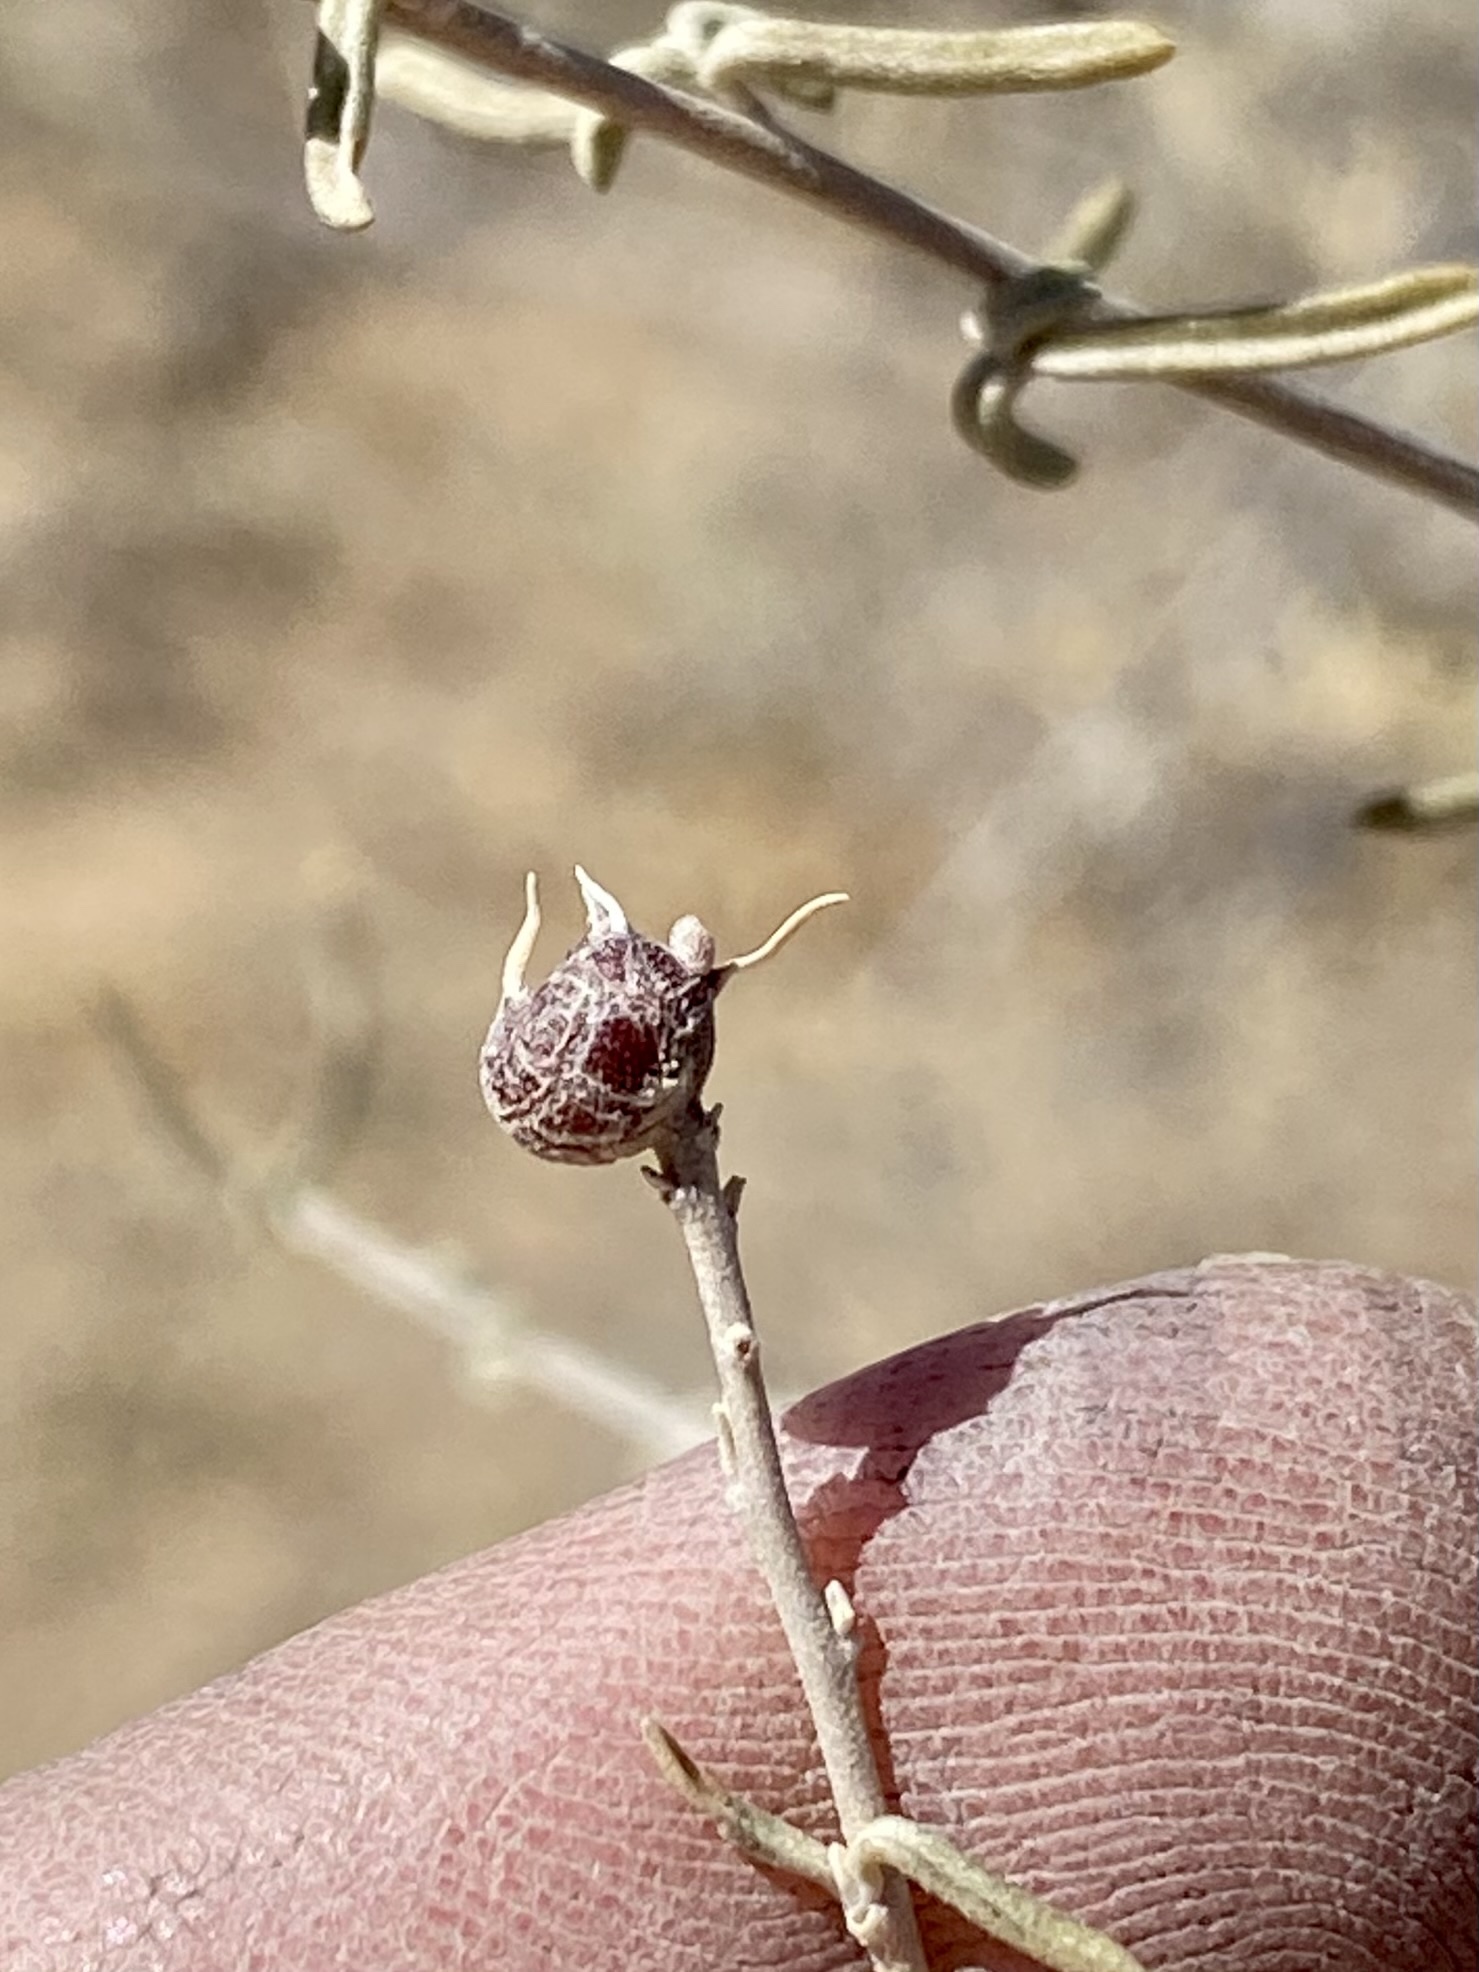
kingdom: Animalia
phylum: Arthropoda
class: Insecta
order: Diptera
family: Cecidomyiidae
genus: Asphondylia
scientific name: Asphondylia caudicis
